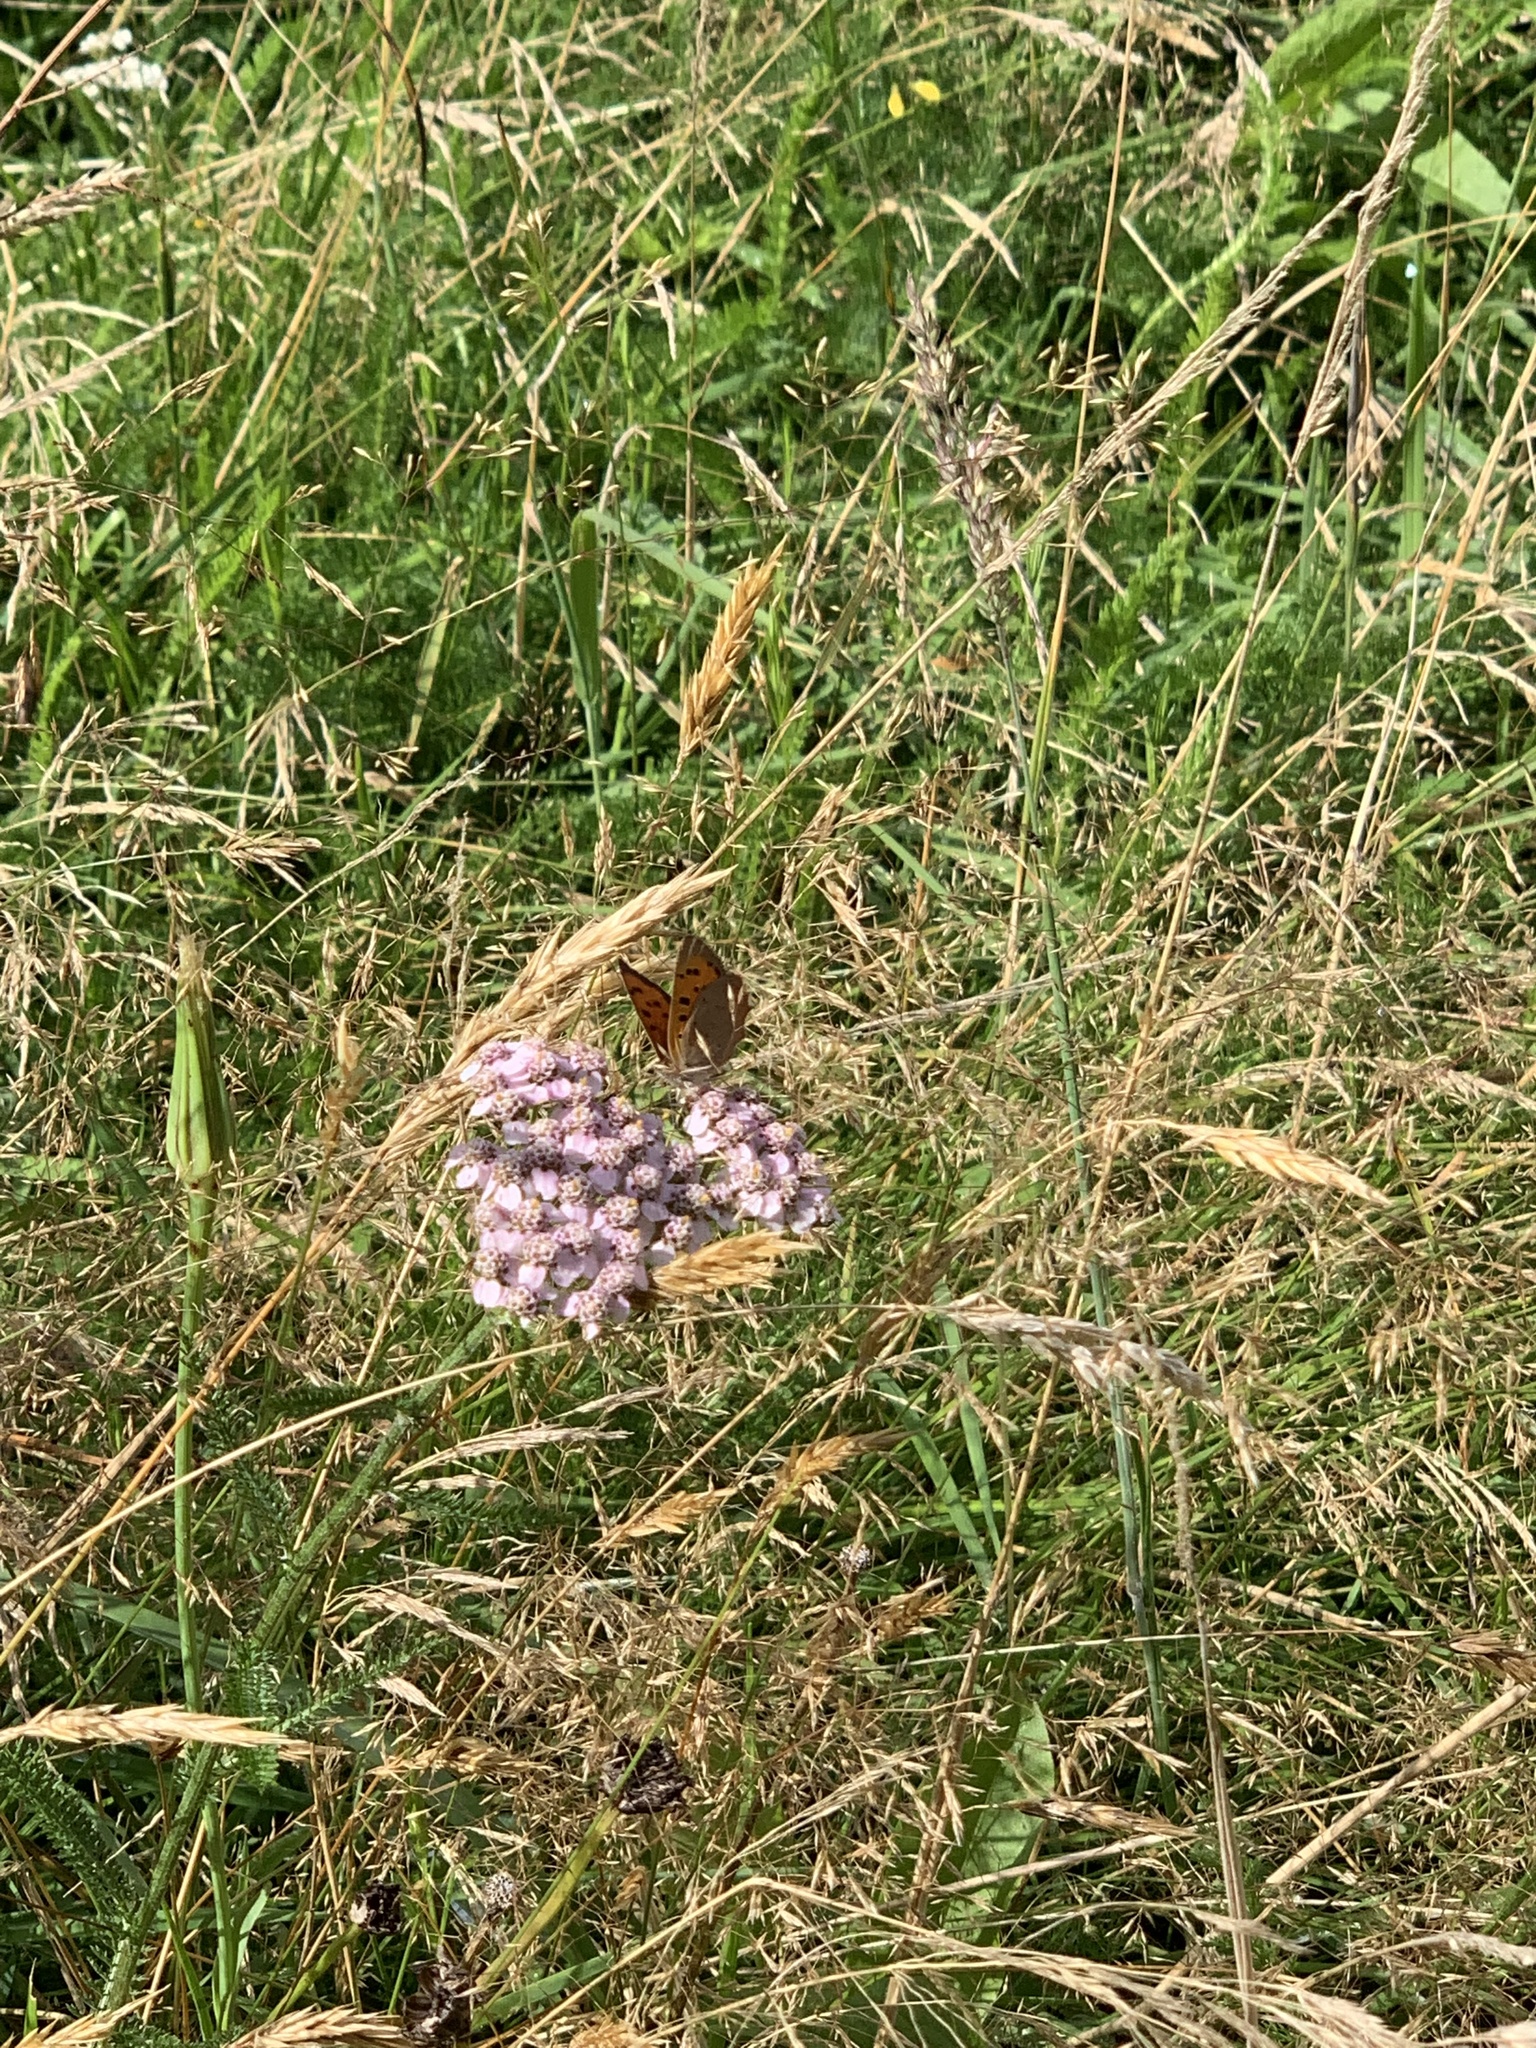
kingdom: Animalia
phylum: Arthropoda
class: Insecta
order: Lepidoptera
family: Lycaenidae
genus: Lycaena
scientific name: Lycaena phlaeas
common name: Small copper
